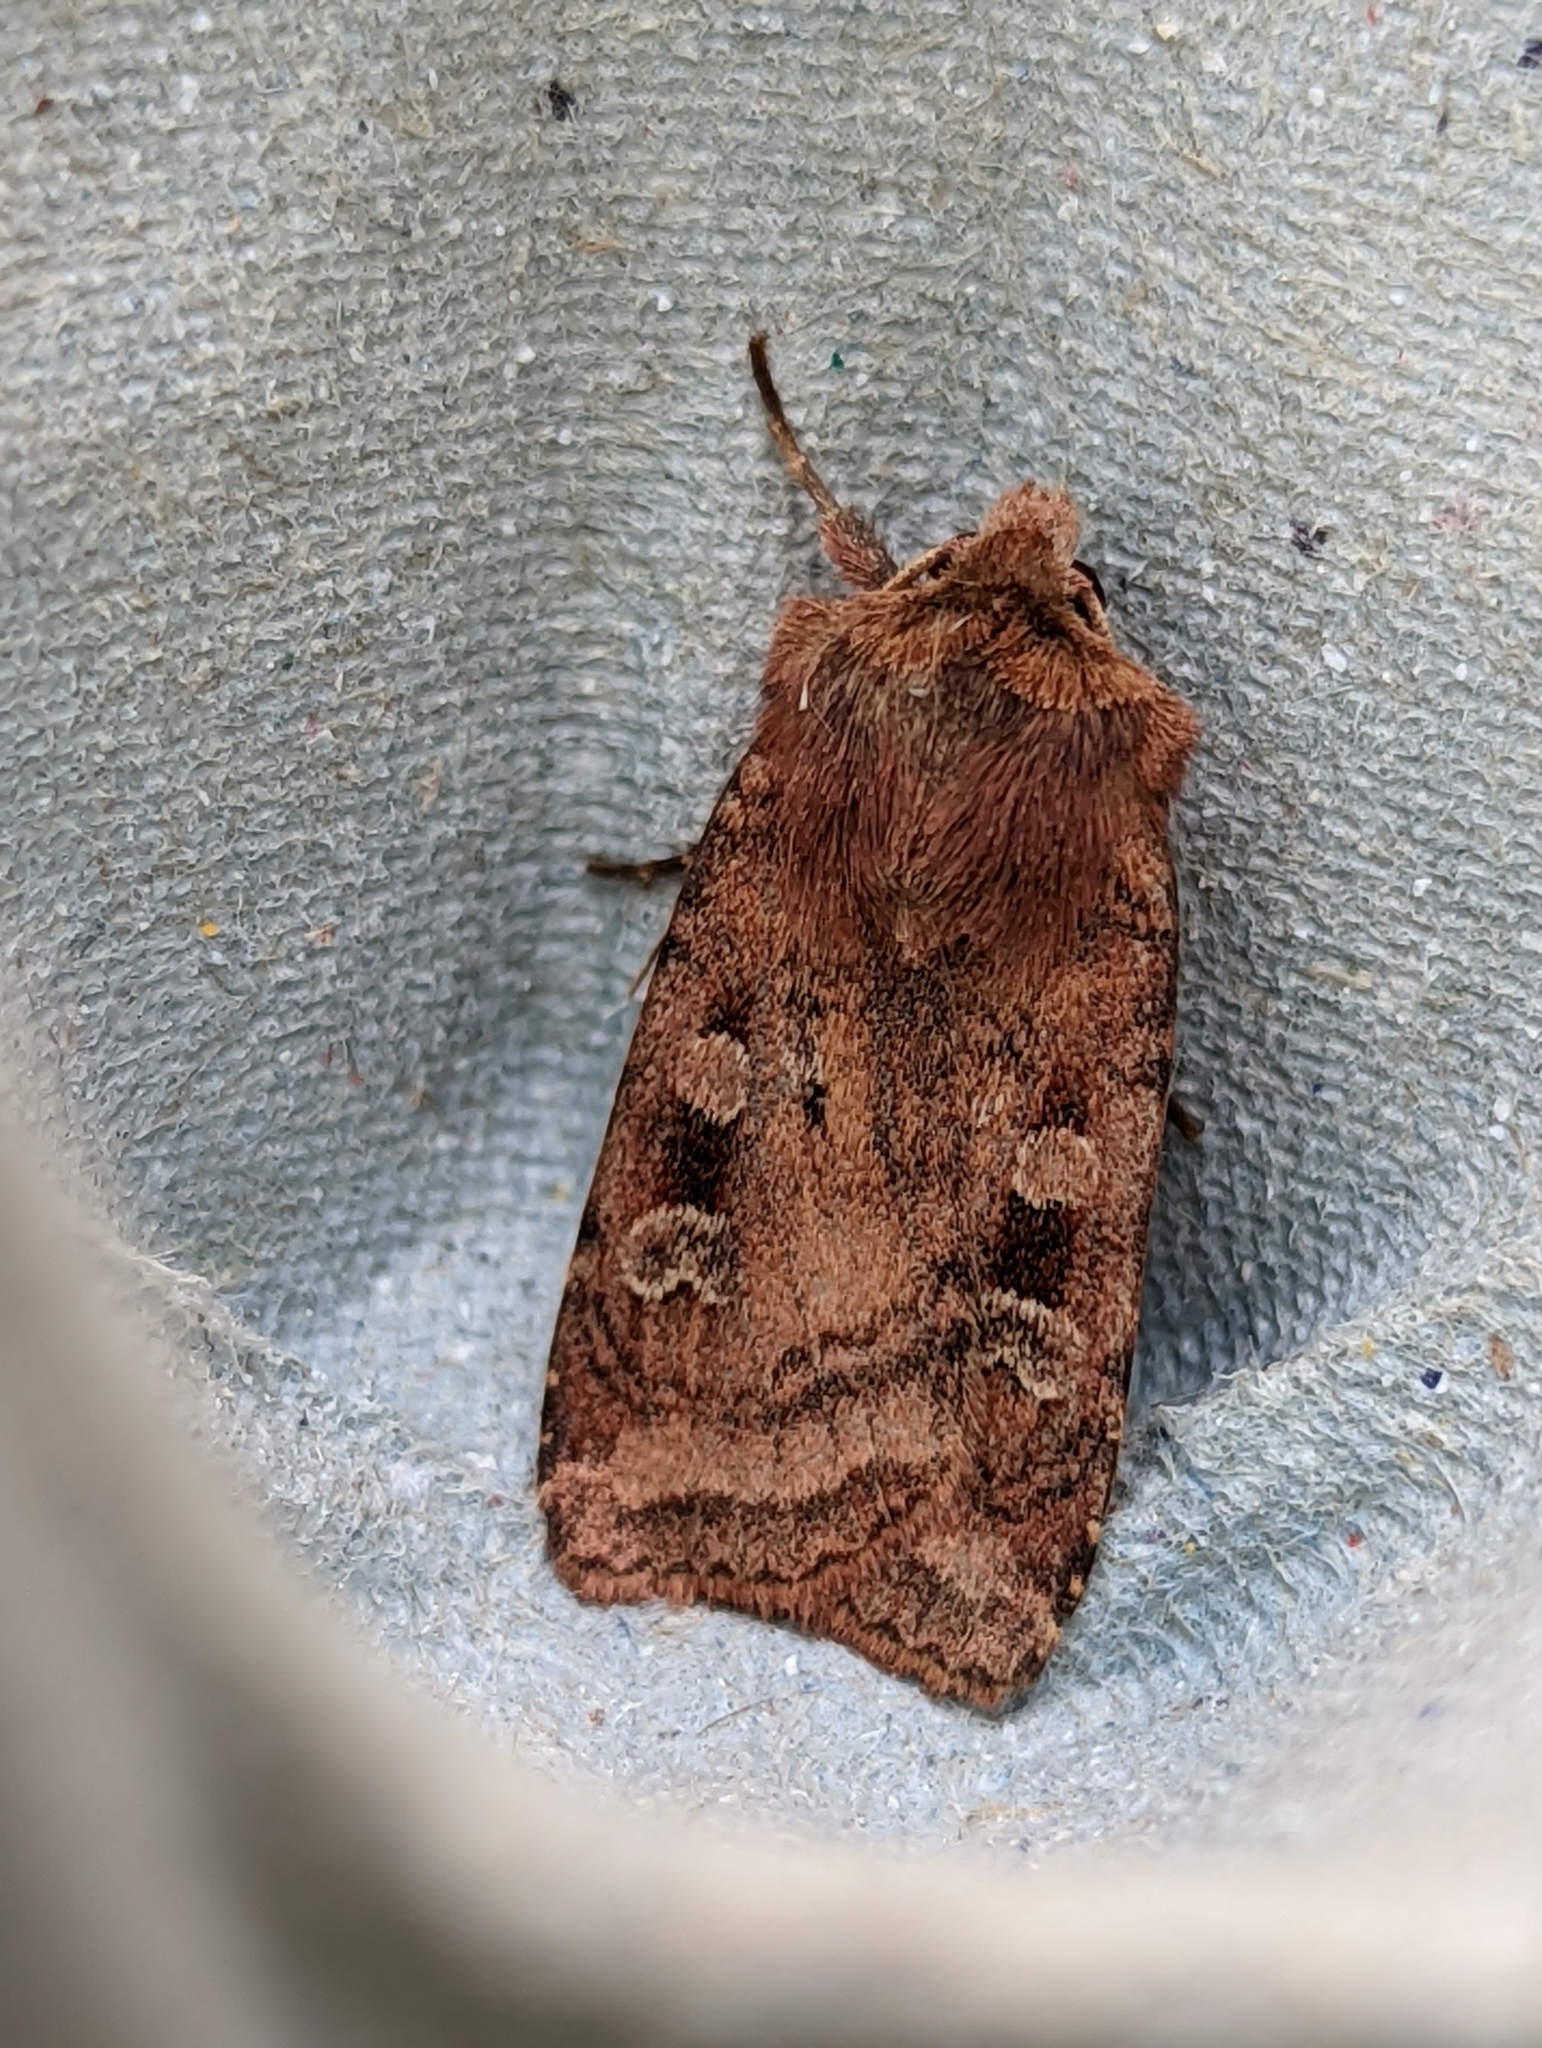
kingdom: Animalia
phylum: Arthropoda
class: Insecta
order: Lepidoptera
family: Noctuidae
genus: Diarsia
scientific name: Diarsia rubi
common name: Small square-spot
